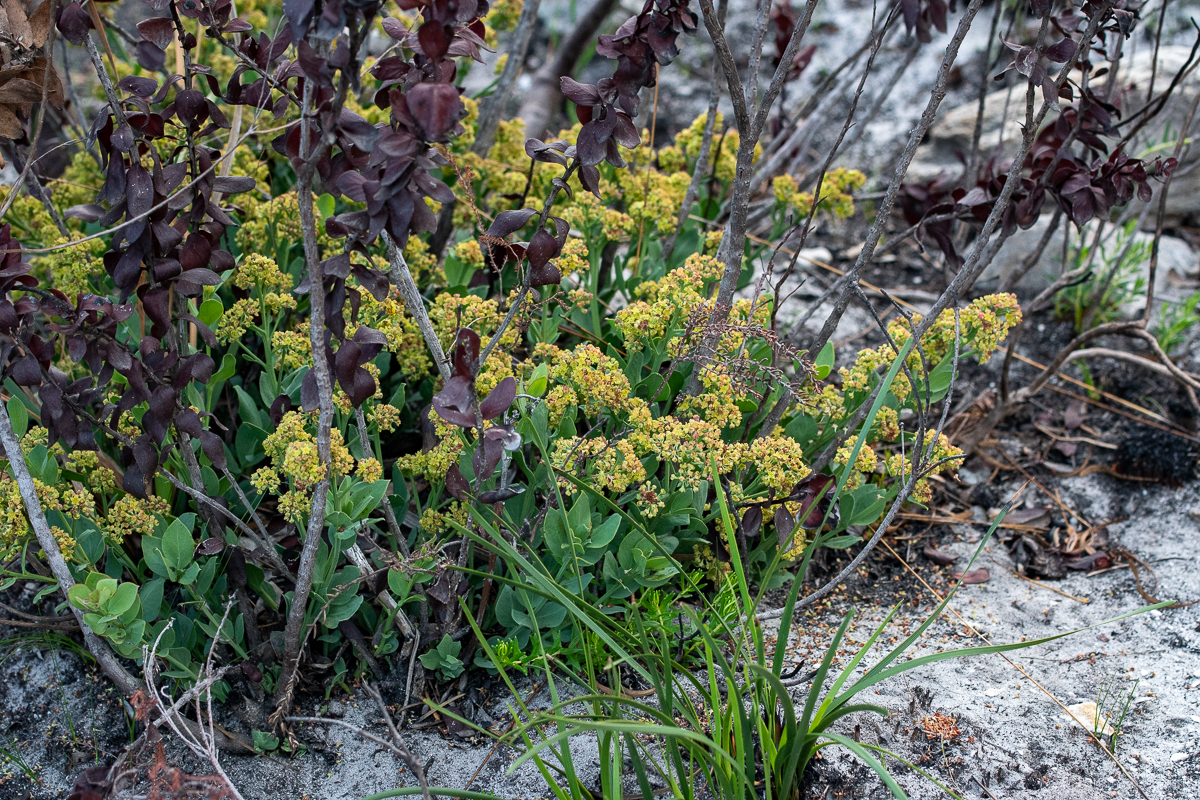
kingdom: Plantae
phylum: Tracheophyta
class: Magnoliopsida
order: Santalales
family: Santalaceae
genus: Osyris
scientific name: Osyris compressa
